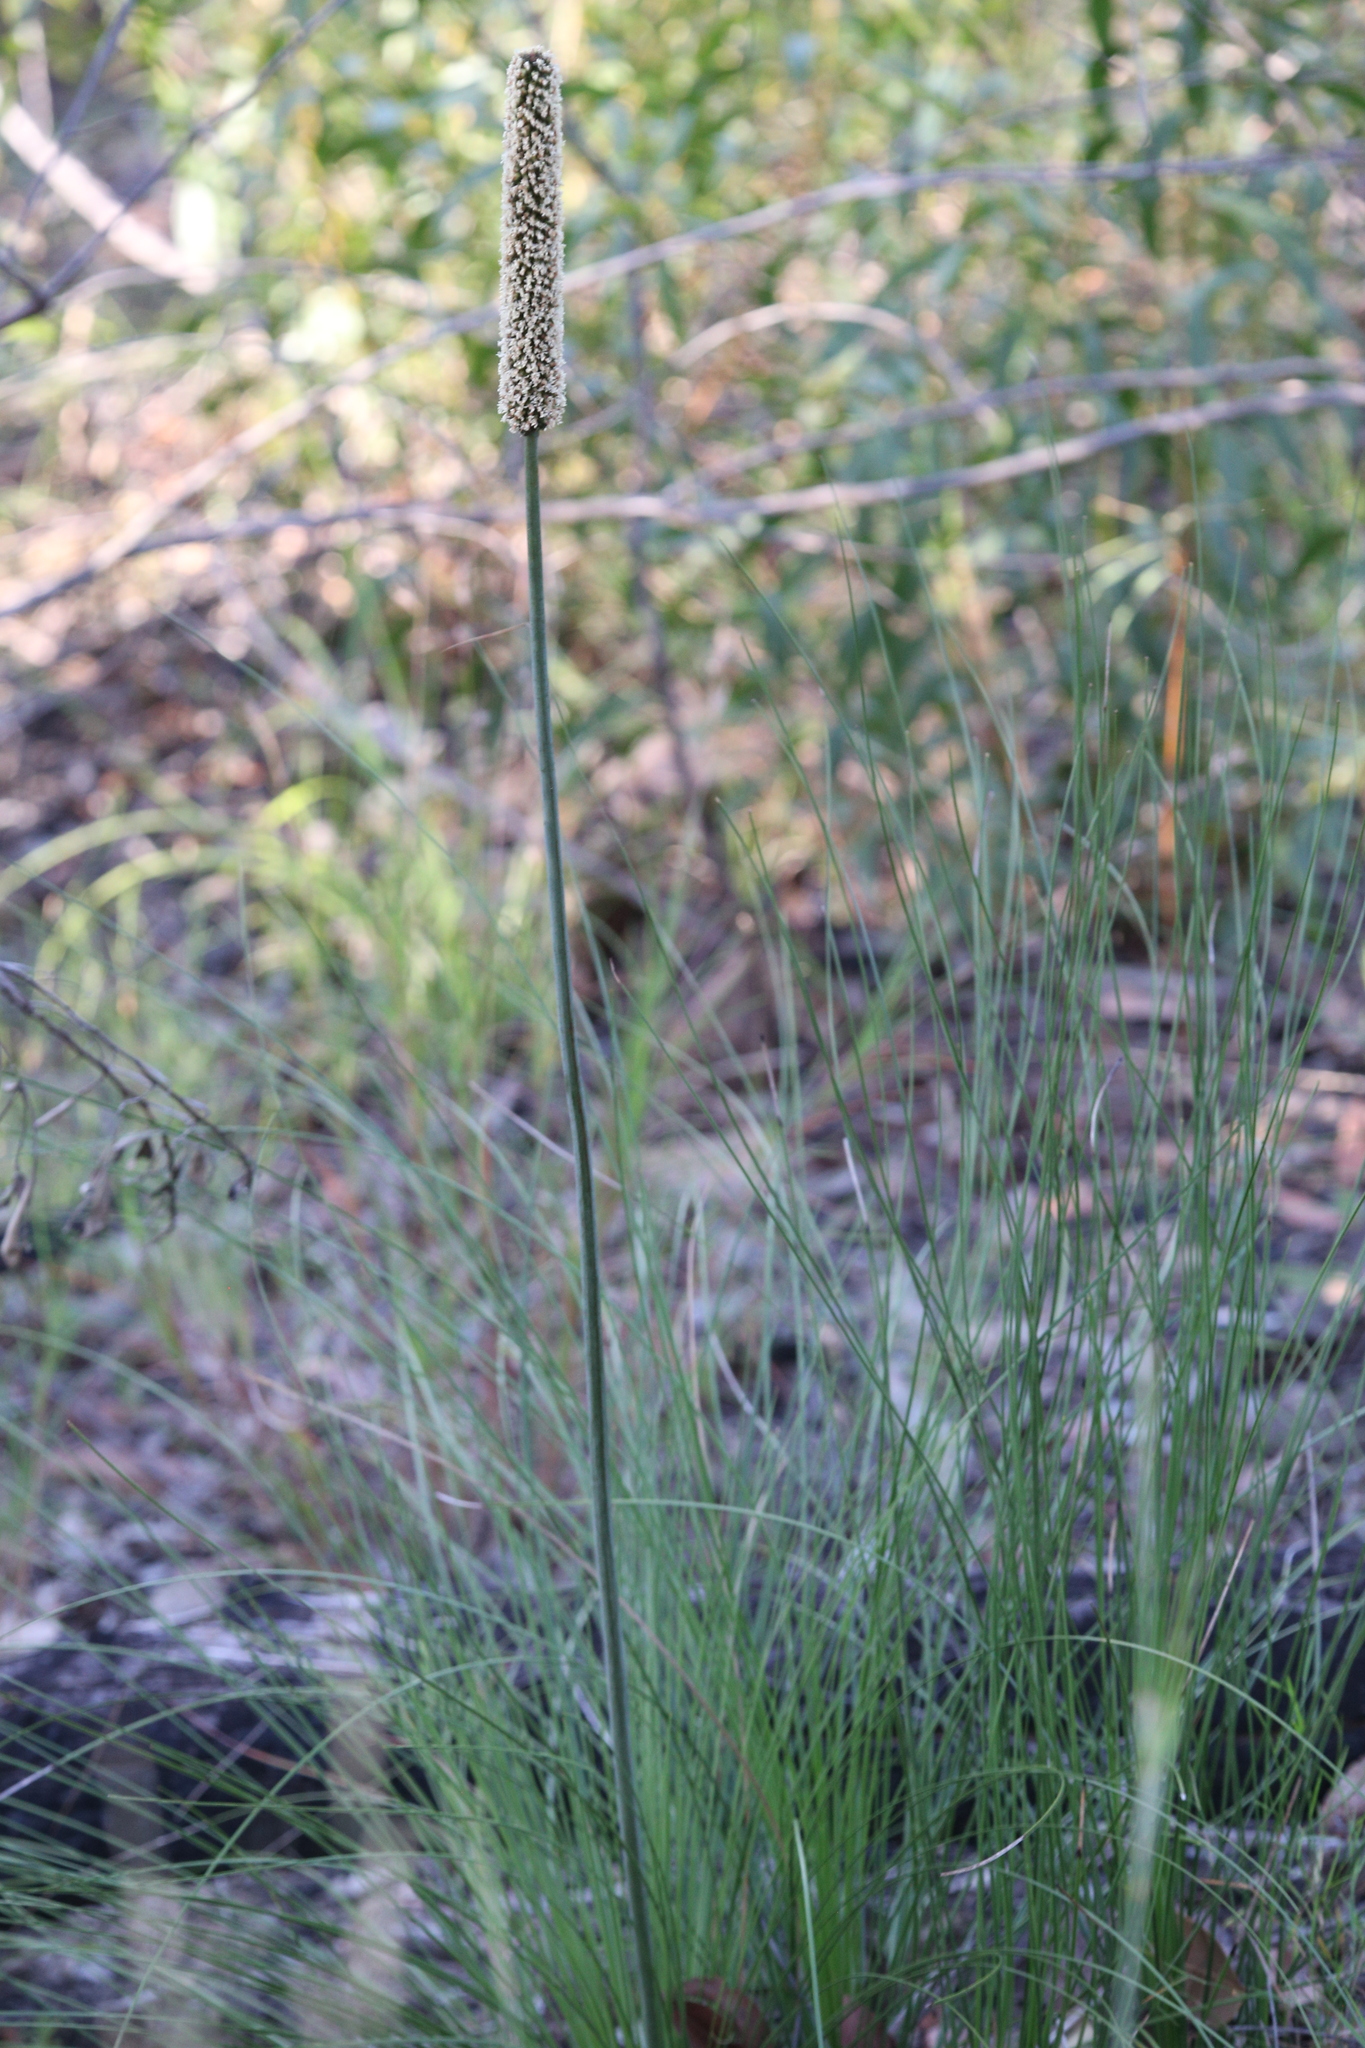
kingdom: Plantae
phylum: Tracheophyta
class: Liliopsida
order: Asparagales
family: Asphodelaceae
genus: Xanthorrhoea
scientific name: Xanthorrhoea johnsonii
